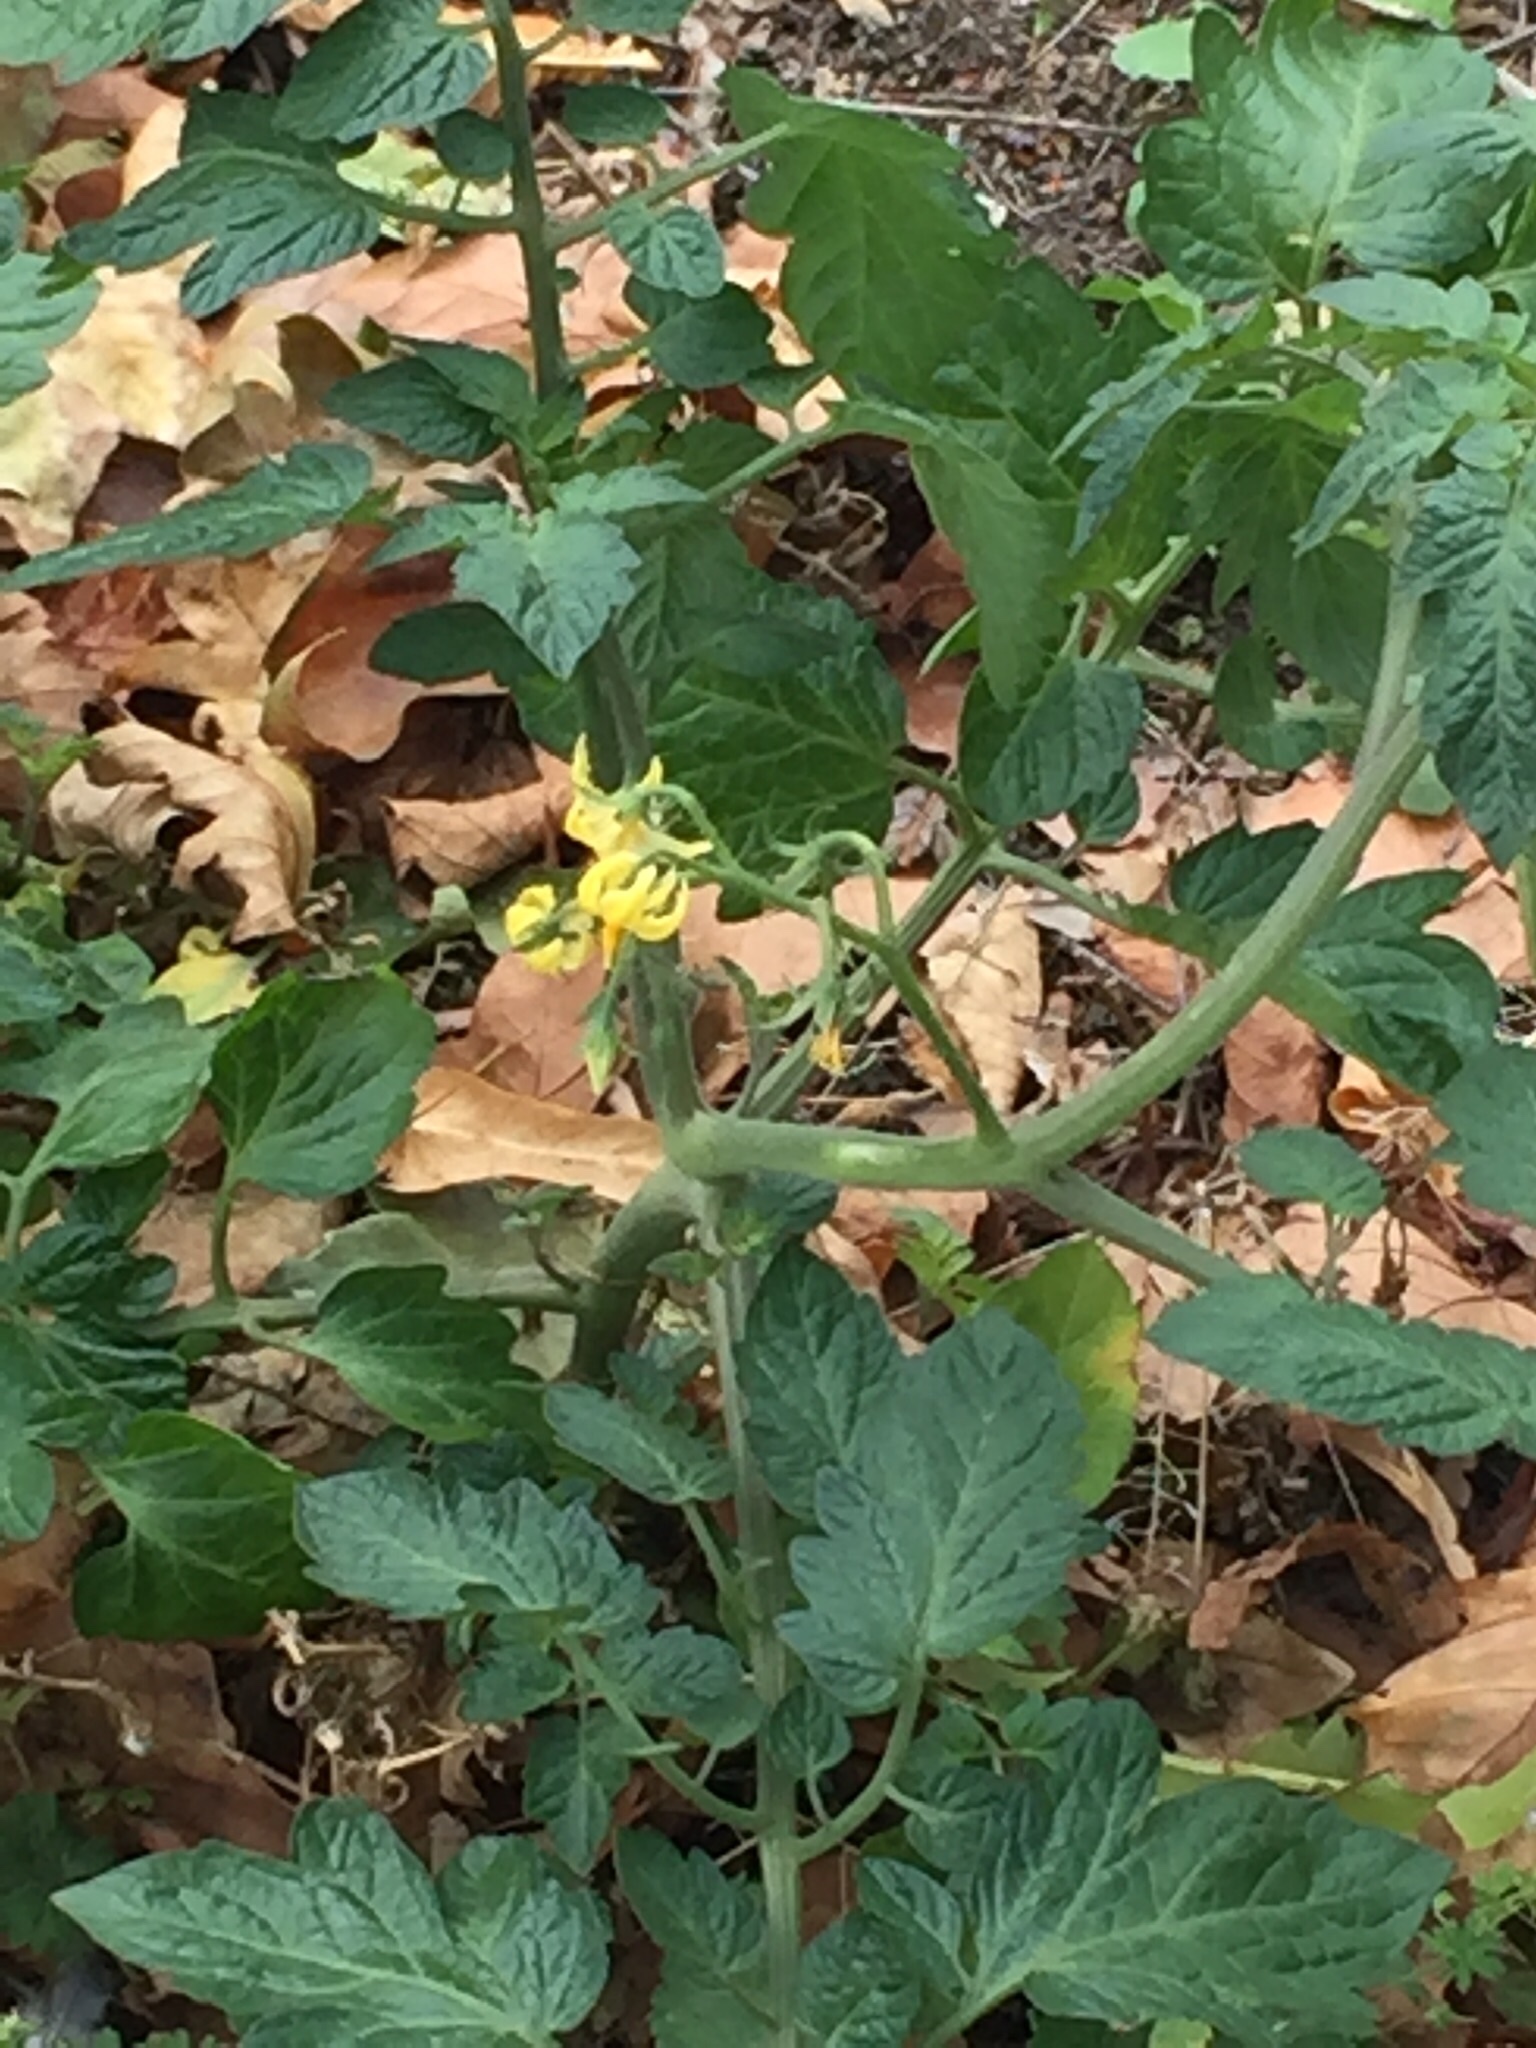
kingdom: Plantae
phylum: Tracheophyta
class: Magnoliopsida
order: Solanales
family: Solanaceae
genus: Solanum
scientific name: Solanum lycopersicum
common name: Garden tomato
